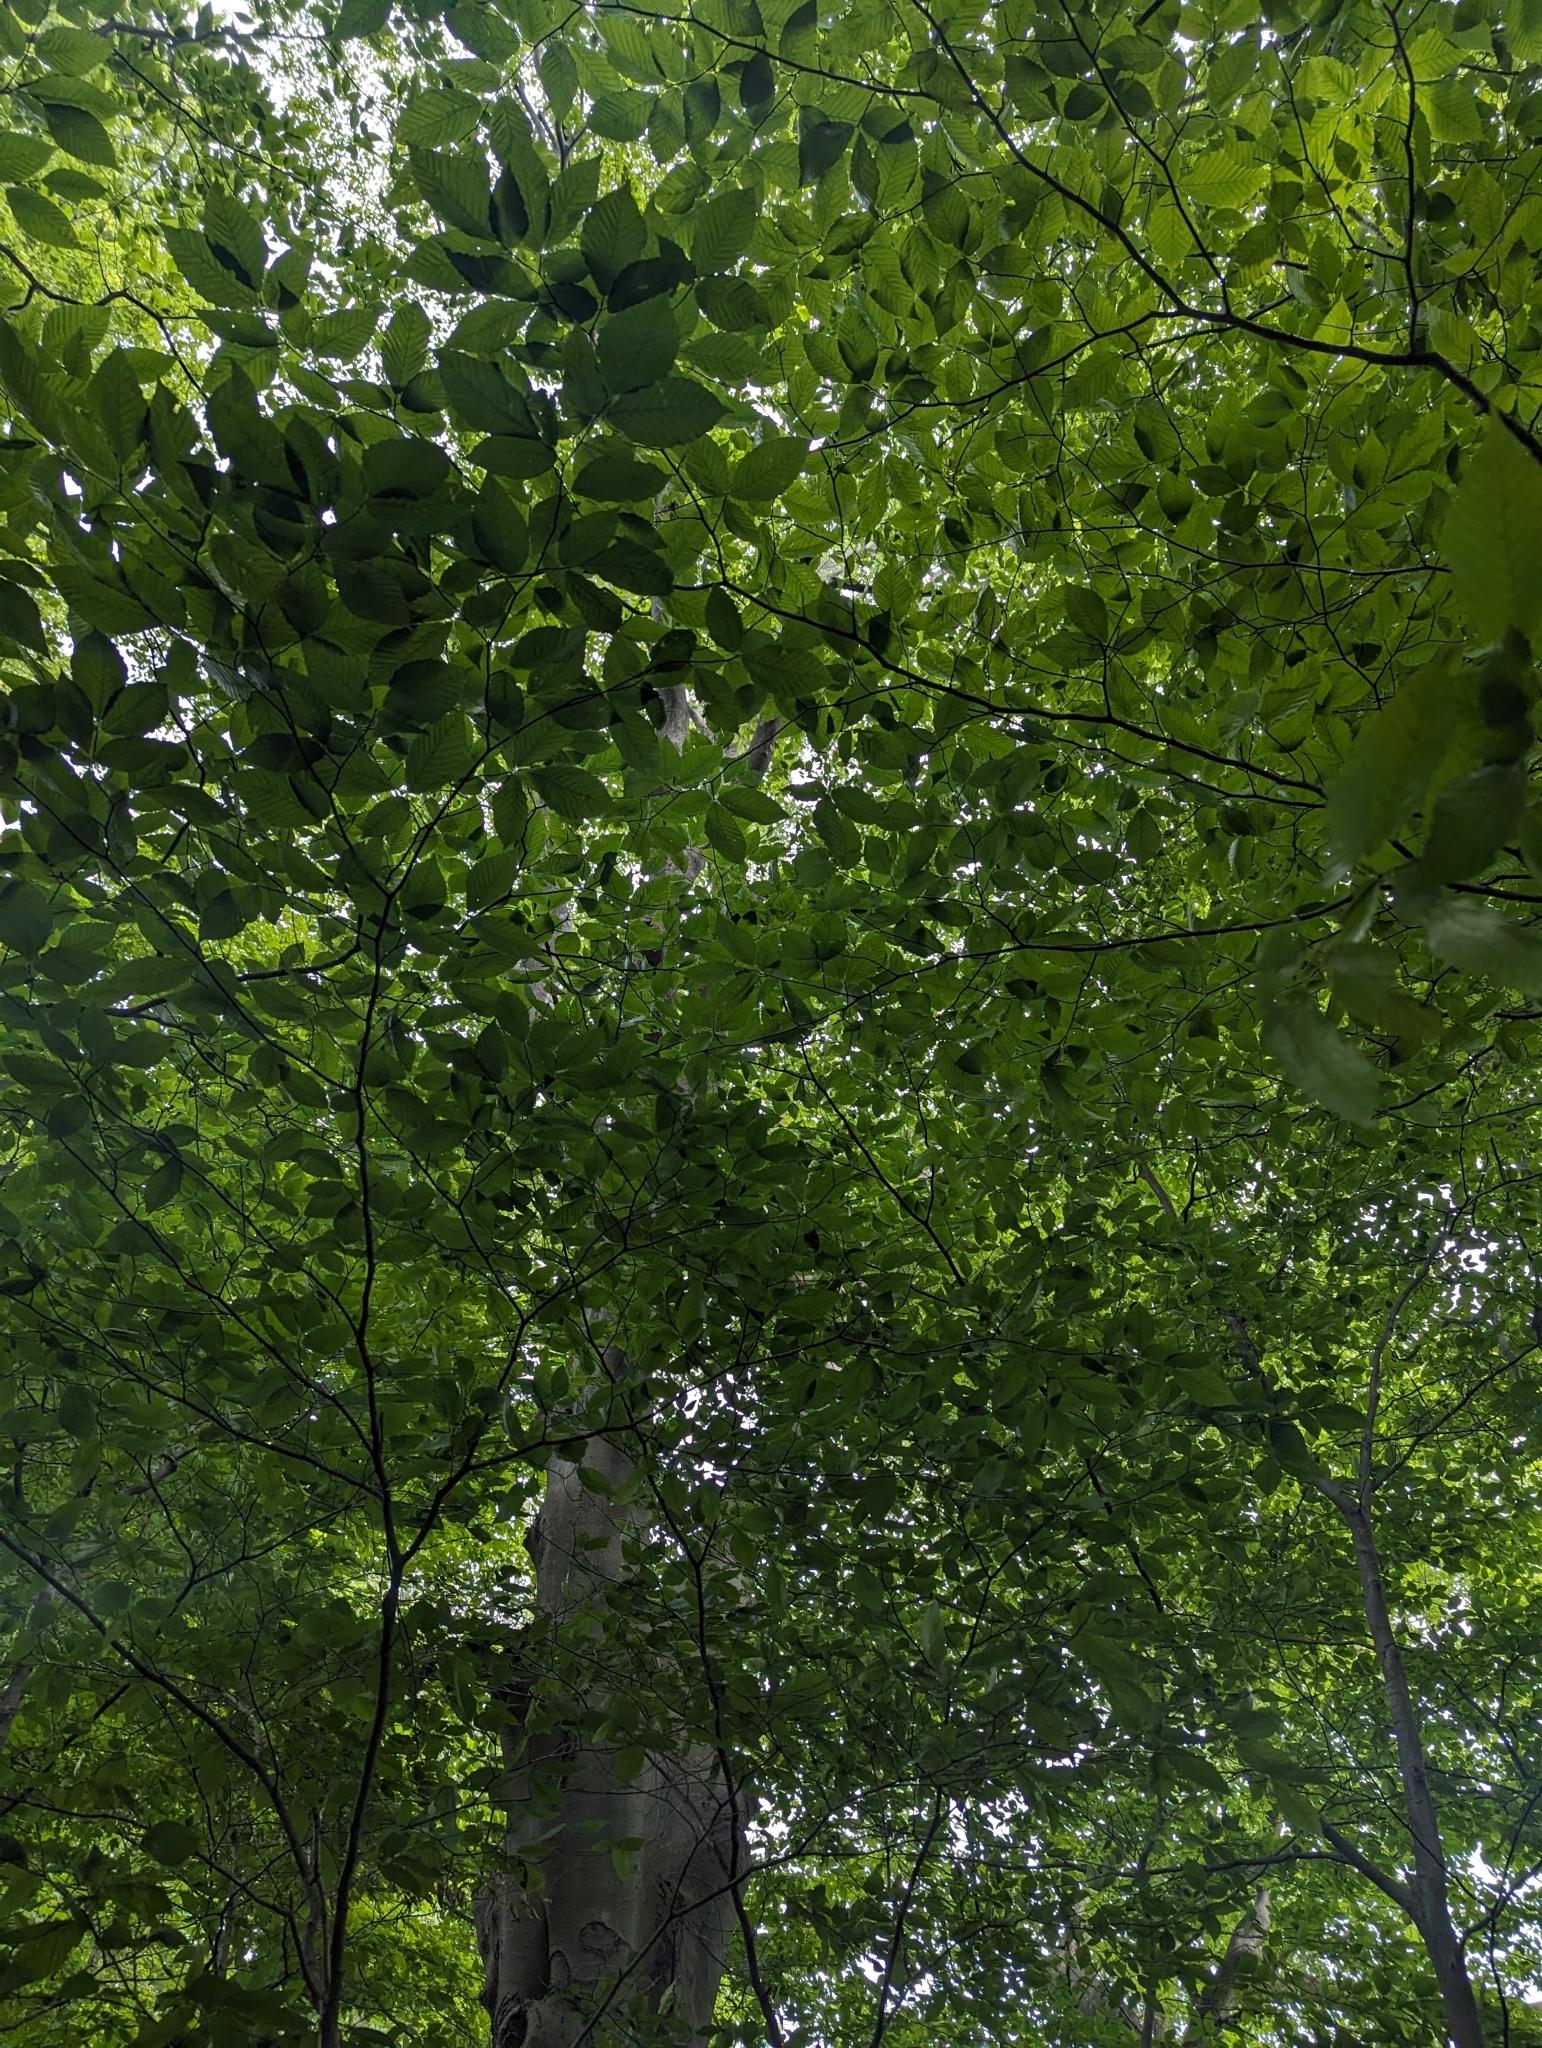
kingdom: Plantae
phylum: Tracheophyta
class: Magnoliopsida
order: Fagales
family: Fagaceae
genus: Fagus
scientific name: Fagus grandifolia
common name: American beech
